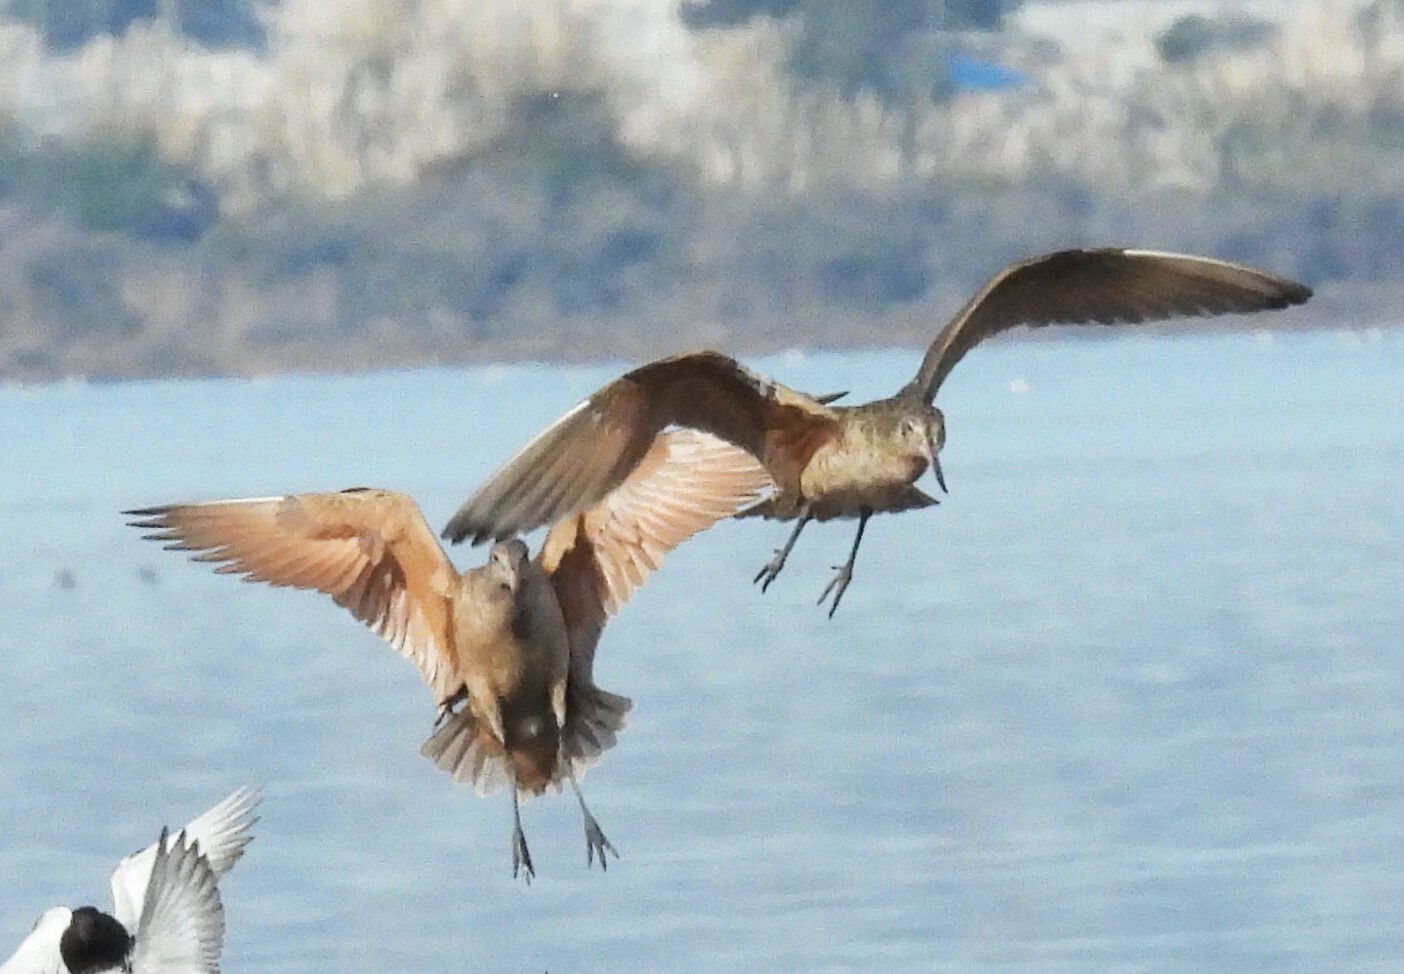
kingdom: Animalia
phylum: Chordata
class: Aves
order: Charadriiformes
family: Scolopacidae
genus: Limosa
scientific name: Limosa fedoa
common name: Marbled godwit
